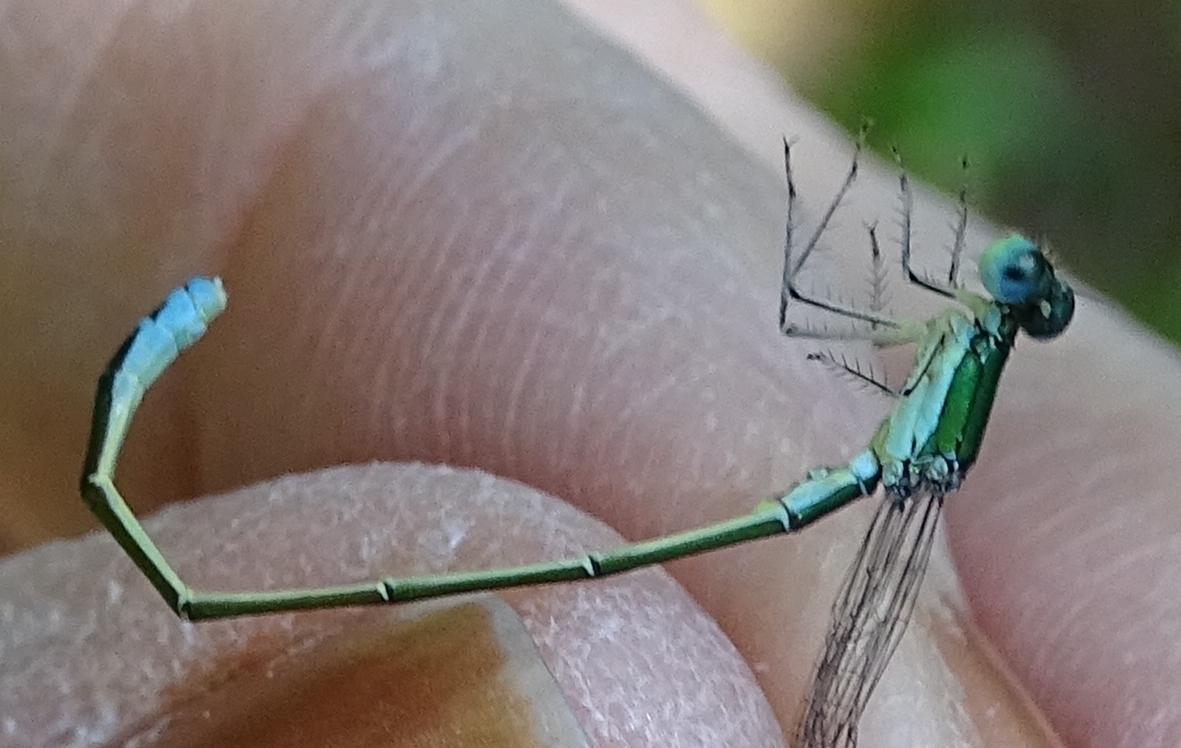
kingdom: Animalia
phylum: Arthropoda
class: Insecta
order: Odonata
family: Coenagrionidae
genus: Nehalennia
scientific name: Nehalennia irene
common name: Sedge sprite
